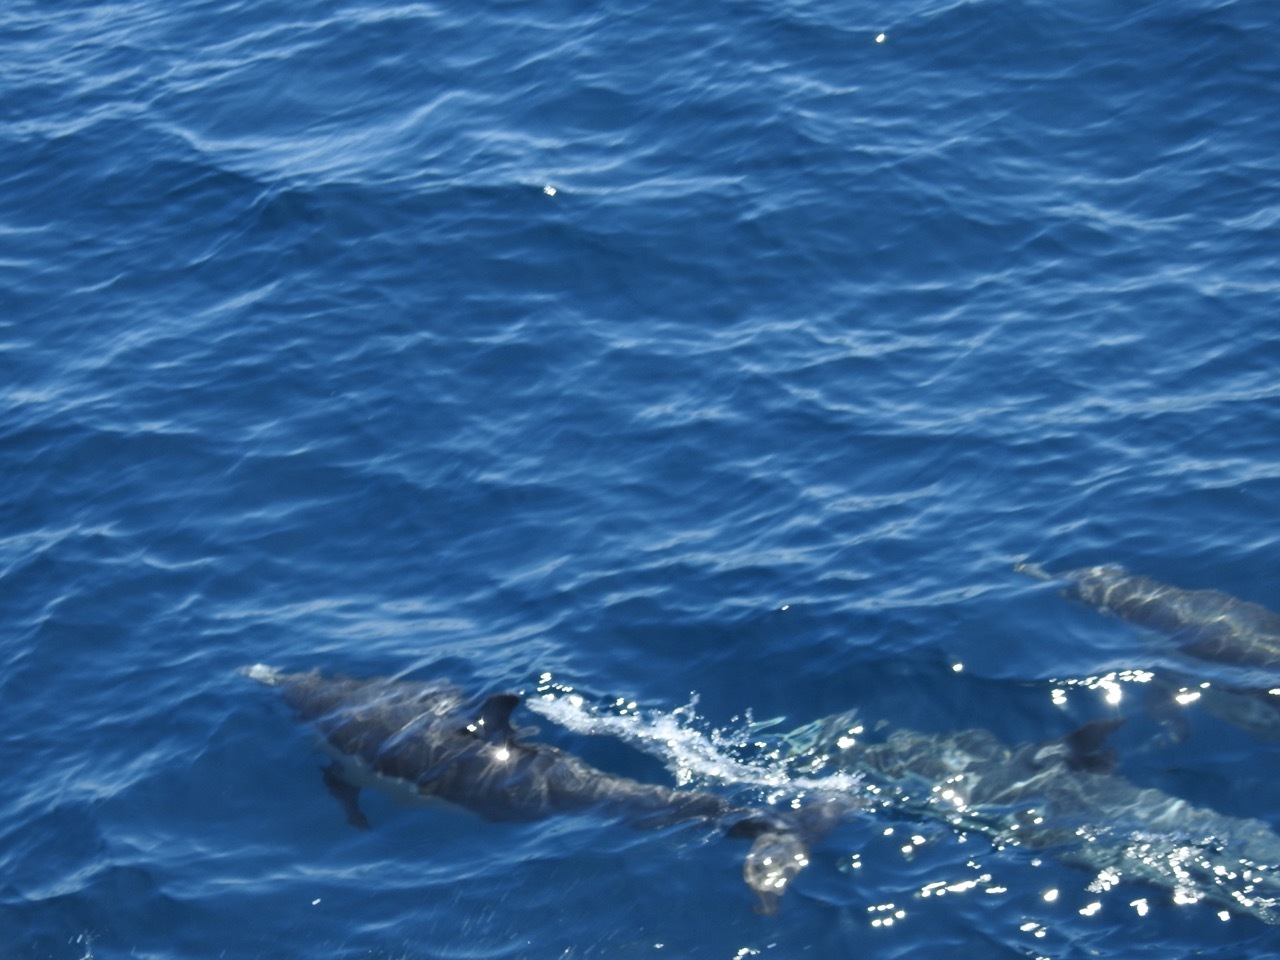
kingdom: Animalia
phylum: Chordata
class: Mammalia
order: Cetacea
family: Delphinidae
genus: Delphinus
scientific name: Delphinus delphis
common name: Common dolphin
